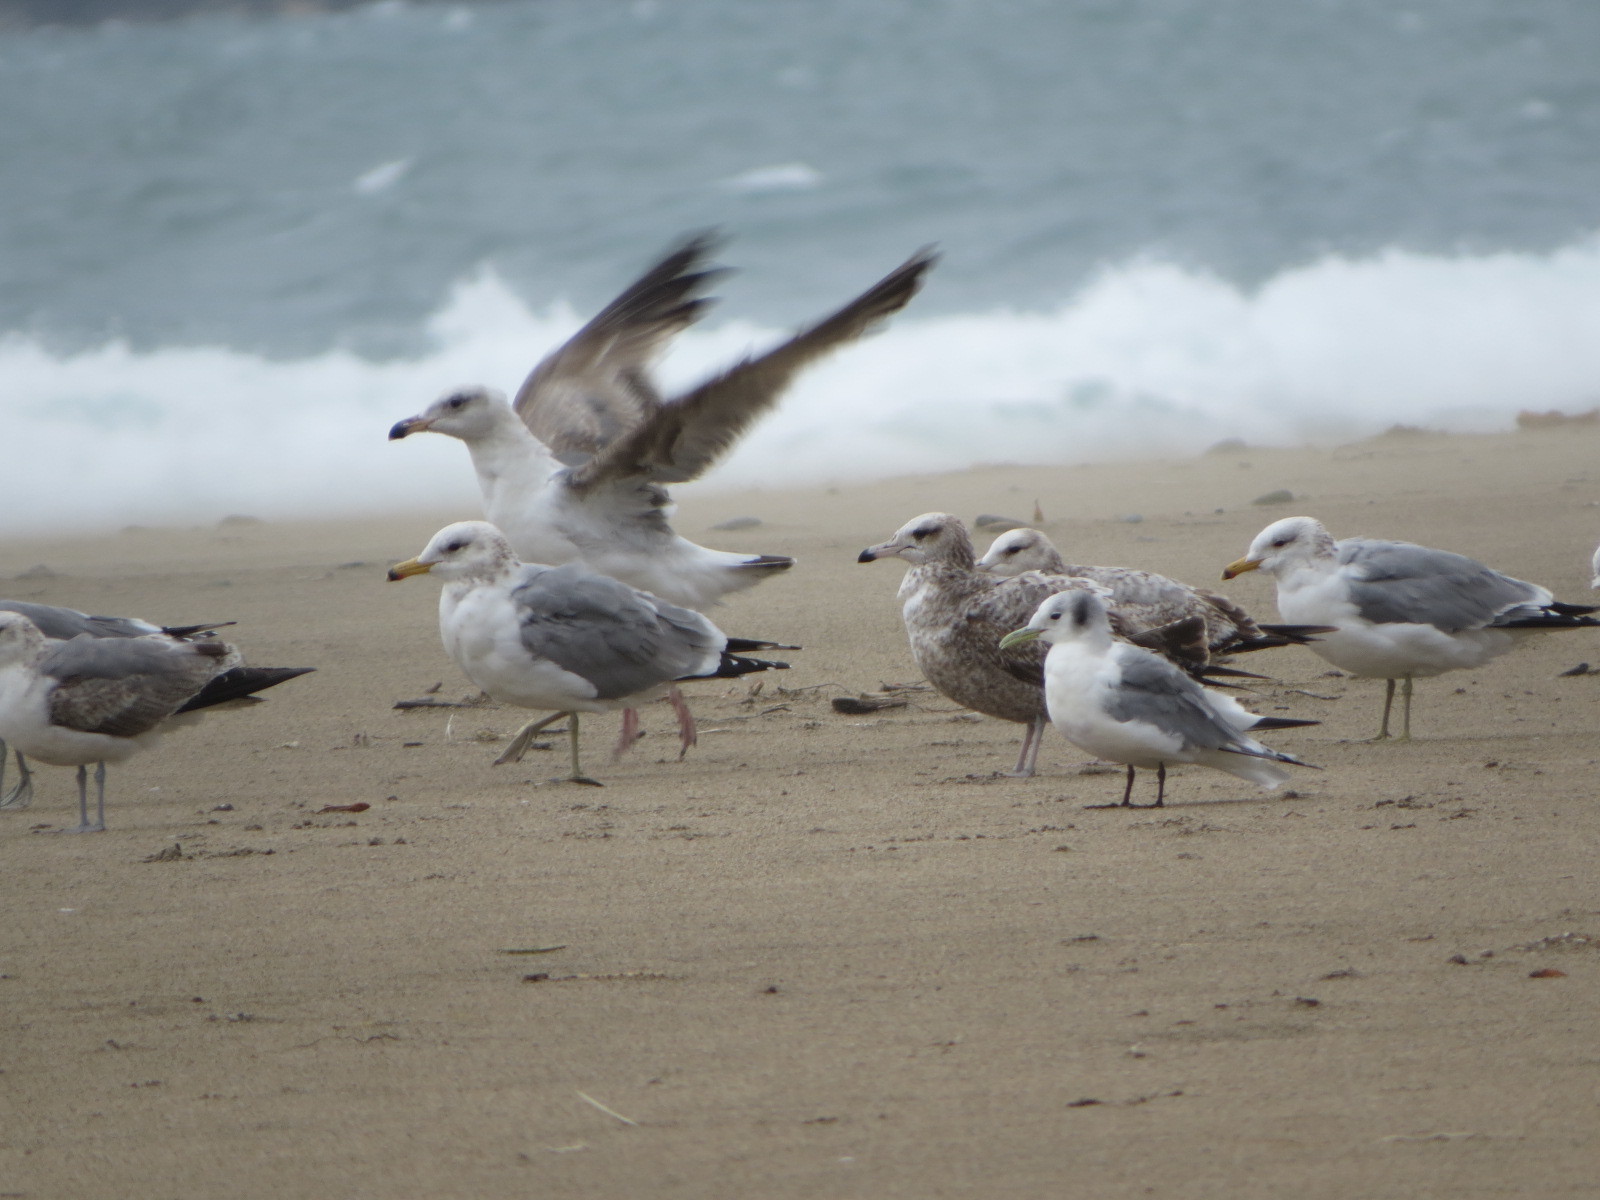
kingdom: Animalia
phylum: Chordata
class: Aves
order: Charadriiformes
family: Laridae
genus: Rissa
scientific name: Rissa tridactyla
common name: Black-legged kittiwake
